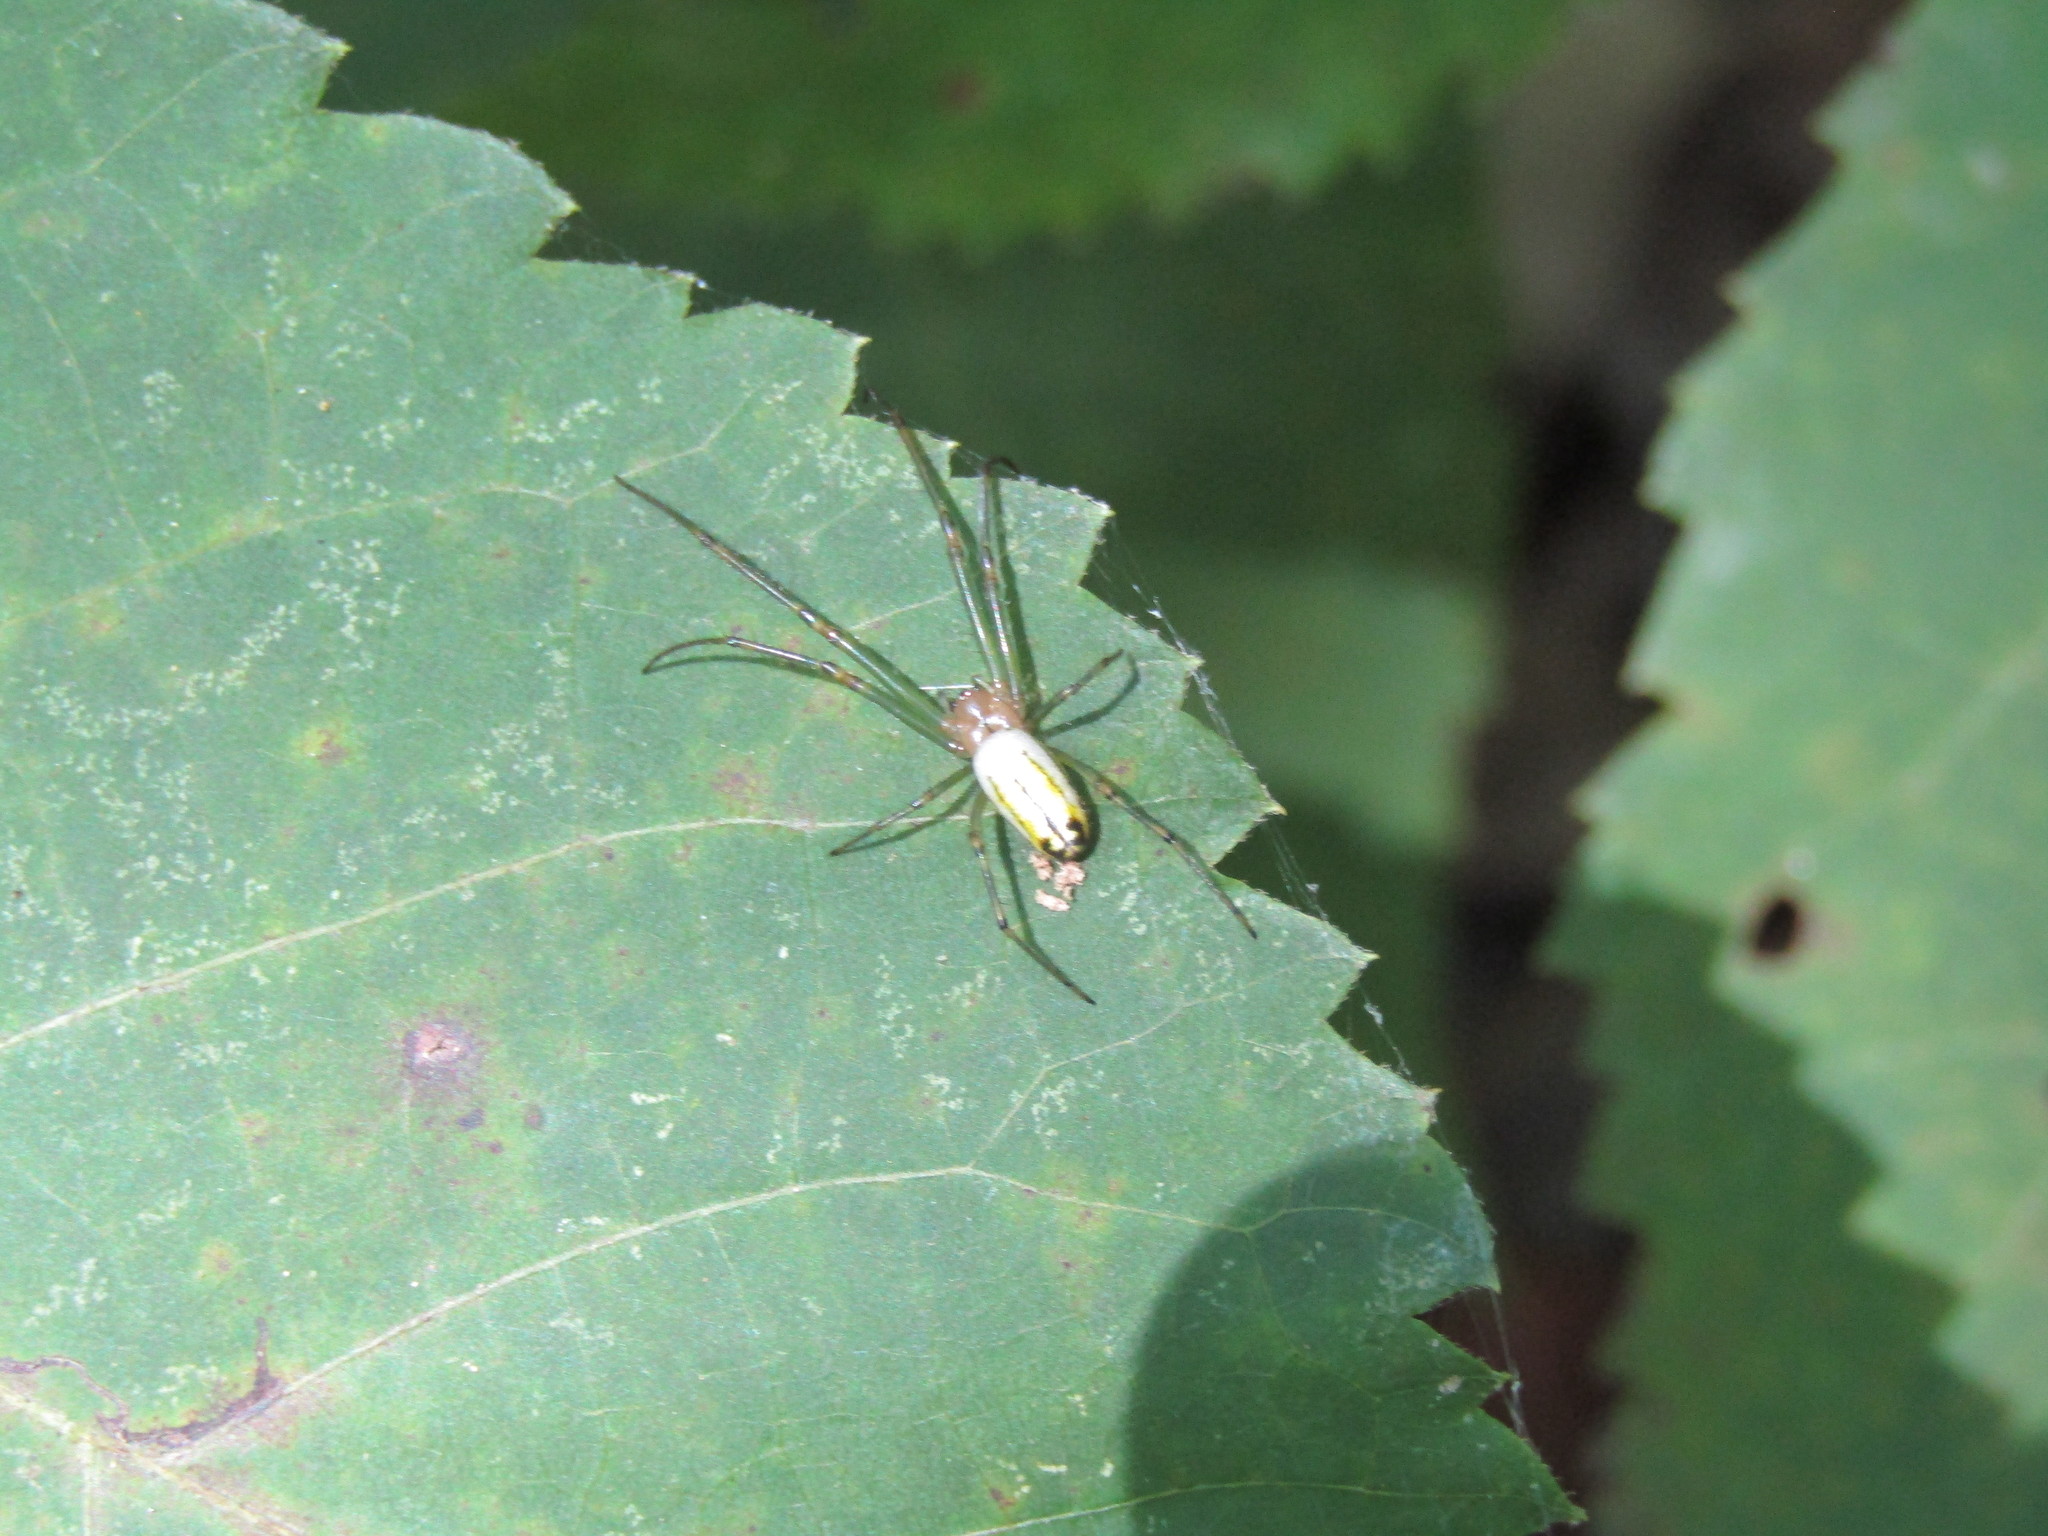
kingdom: Animalia
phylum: Arthropoda
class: Arachnida
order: Araneae
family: Tetragnathidae
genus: Leucauge
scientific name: Leucauge venusta
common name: Longjawed orb weavers
